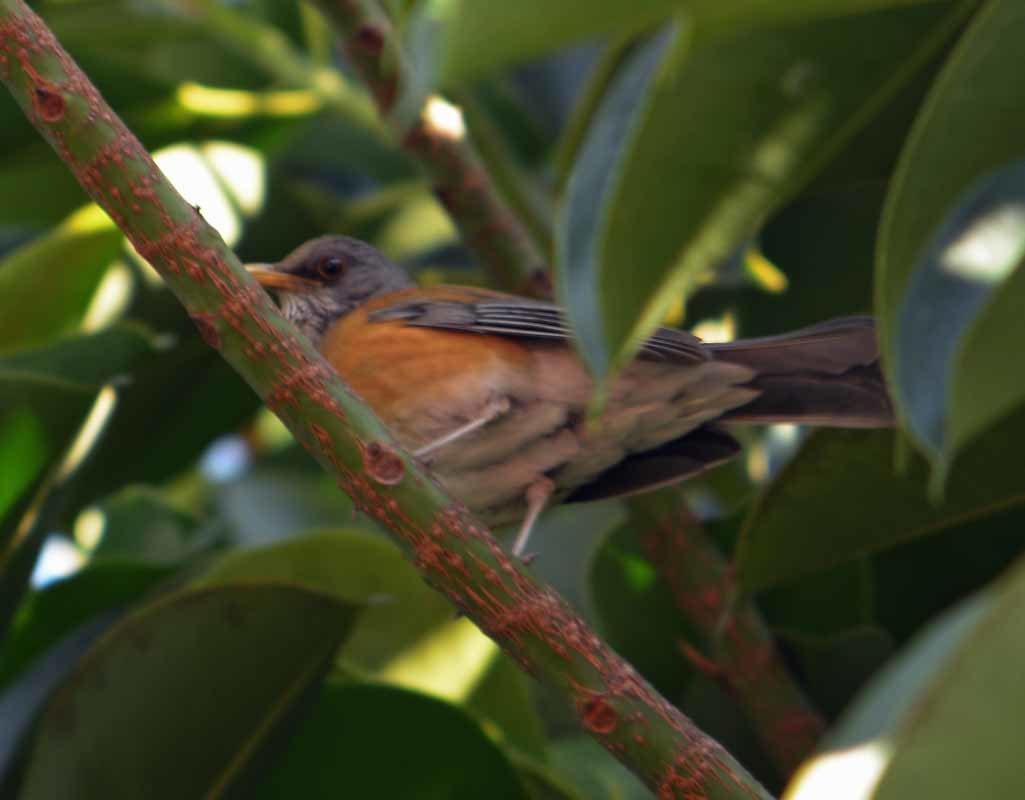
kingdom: Animalia
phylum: Chordata
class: Aves
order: Passeriformes
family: Turdidae
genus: Turdus
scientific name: Turdus rufopalliatus
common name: Rufous-backed robin
